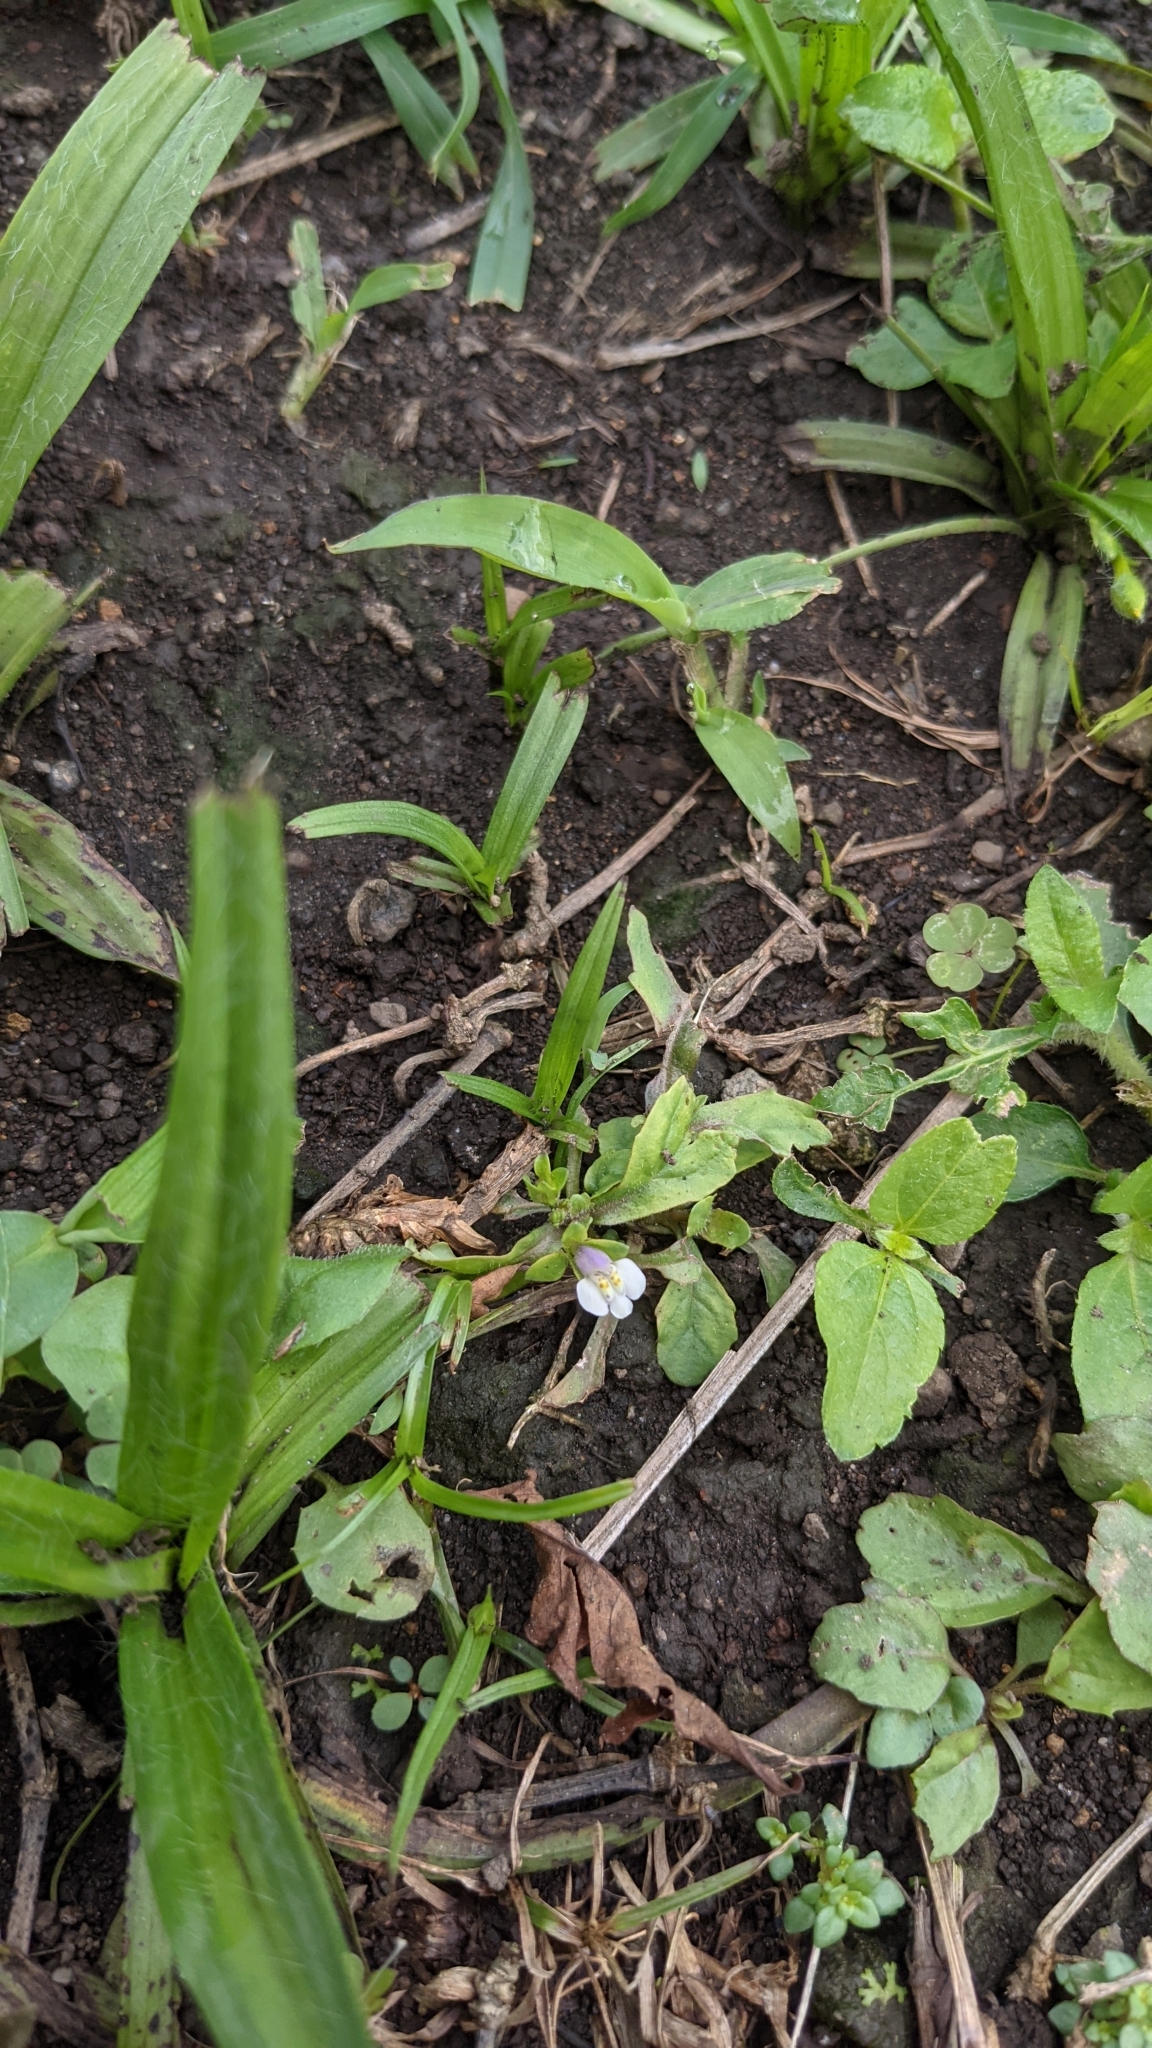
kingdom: Plantae
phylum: Tracheophyta
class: Magnoliopsida
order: Lamiales
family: Mazaceae
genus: Mazus
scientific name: Mazus pumilus
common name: Japanese mazus
